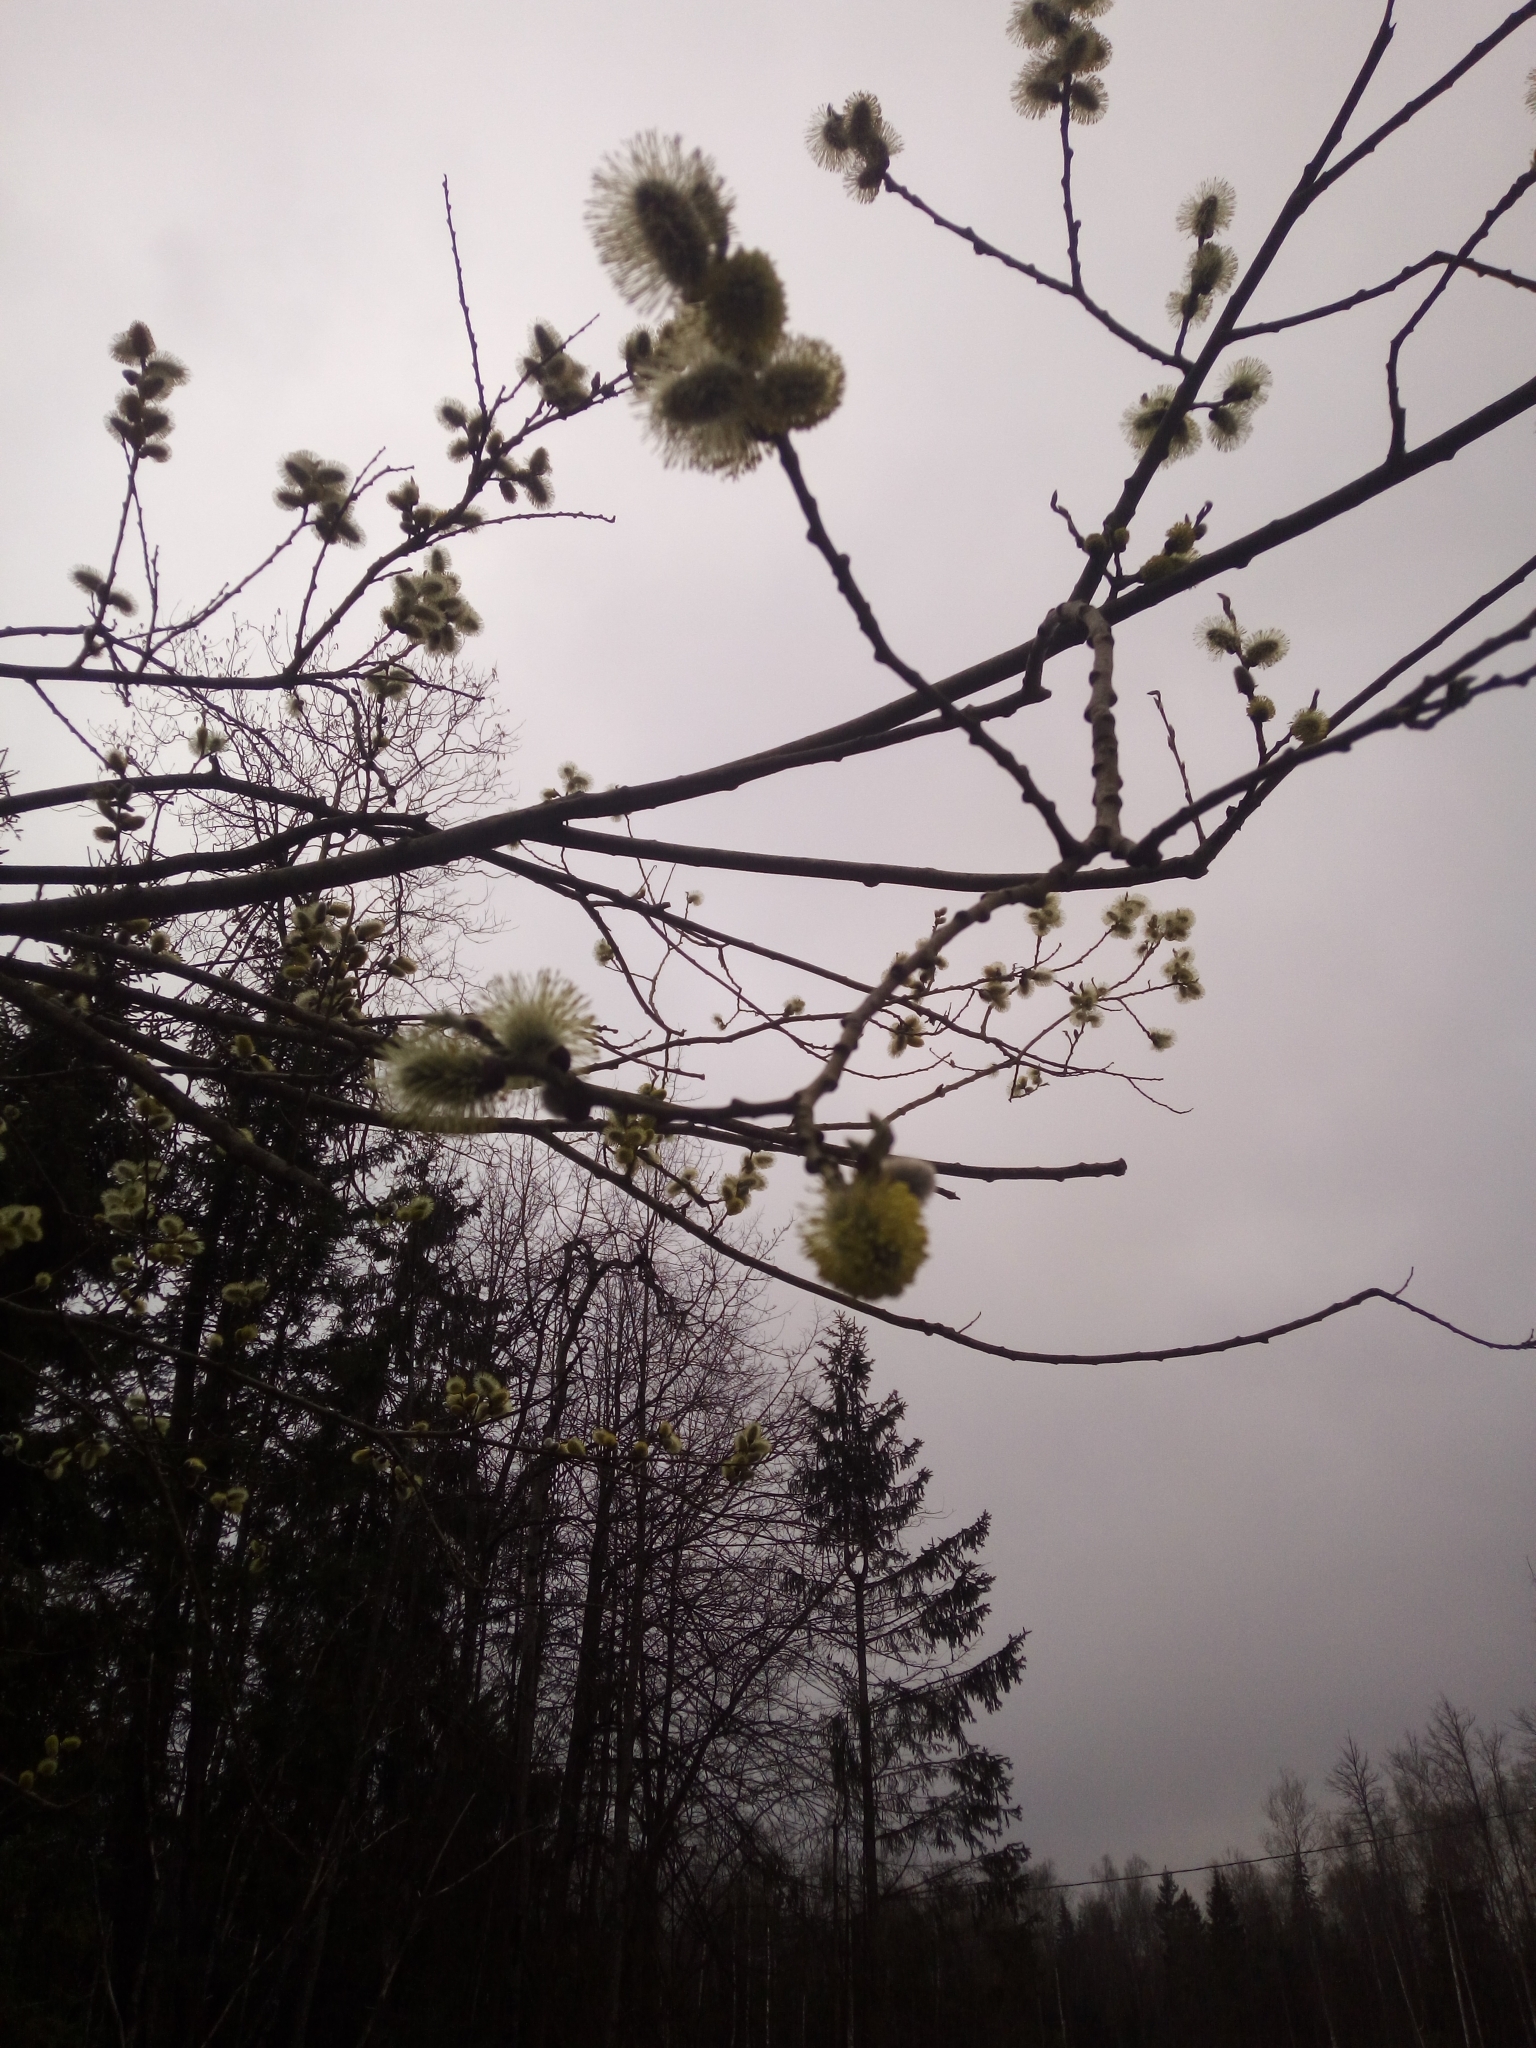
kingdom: Plantae
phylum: Tracheophyta
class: Magnoliopsida
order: Malpighiales
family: Salicaceae
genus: Salix
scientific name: Salix caprea
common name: Goat willow
